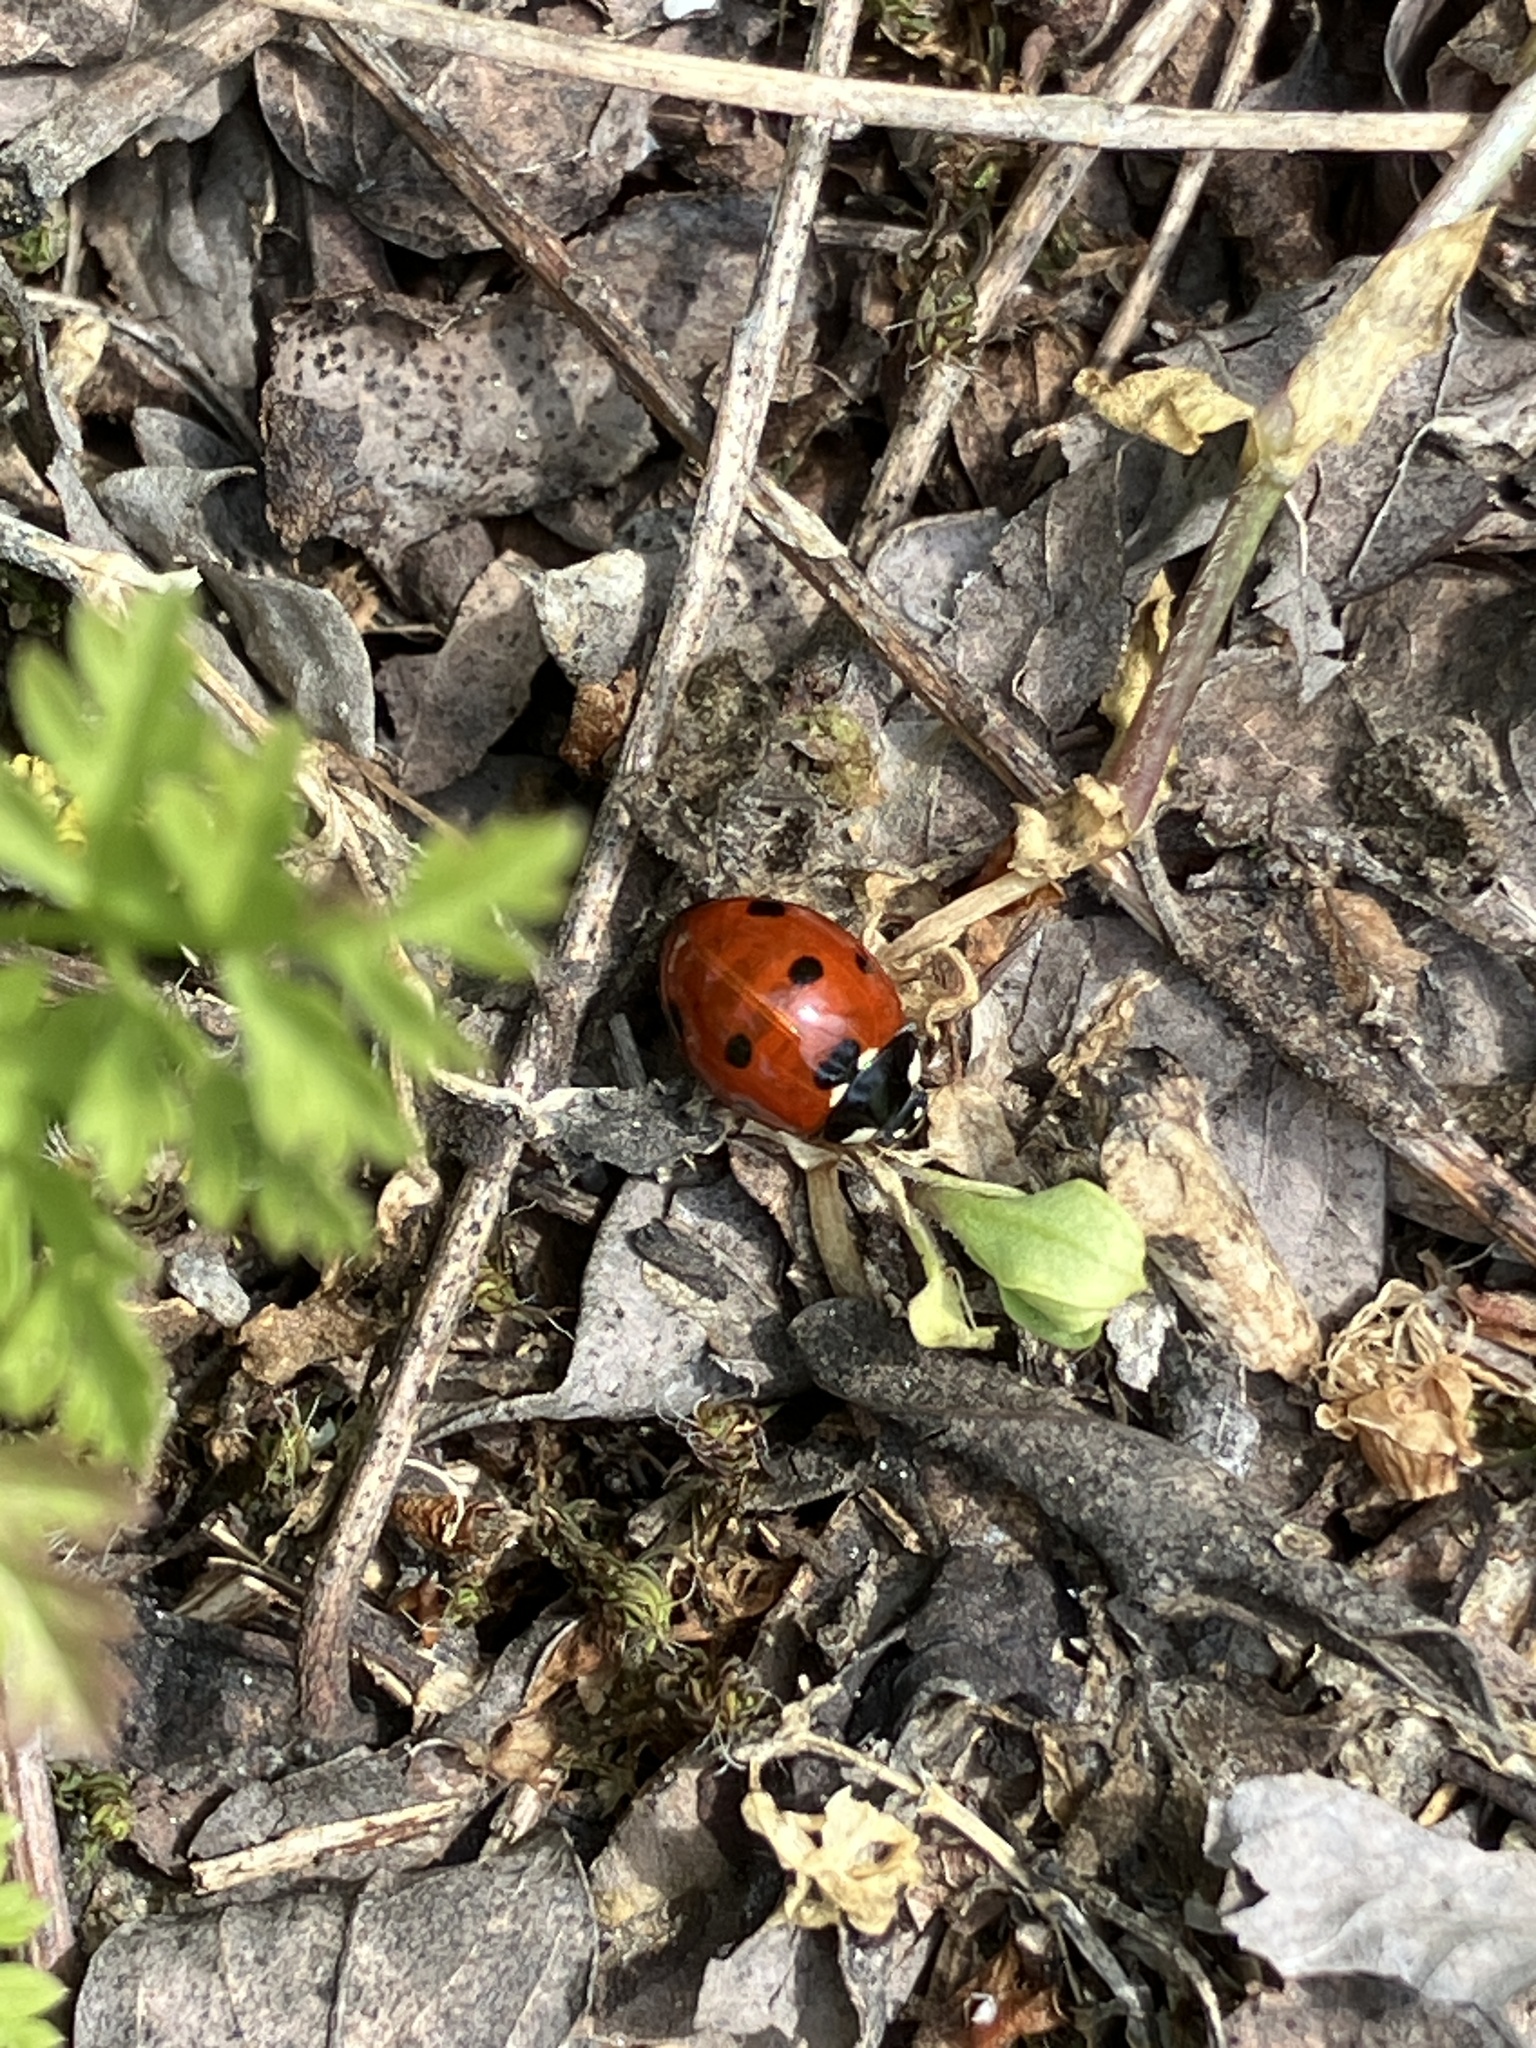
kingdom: Animalia
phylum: Arthropoda
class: Insecta
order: Coleoptera
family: Coccinellidae
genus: Coccinella
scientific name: Coccinella septempunctata
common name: Sevenspotted lady beetle
